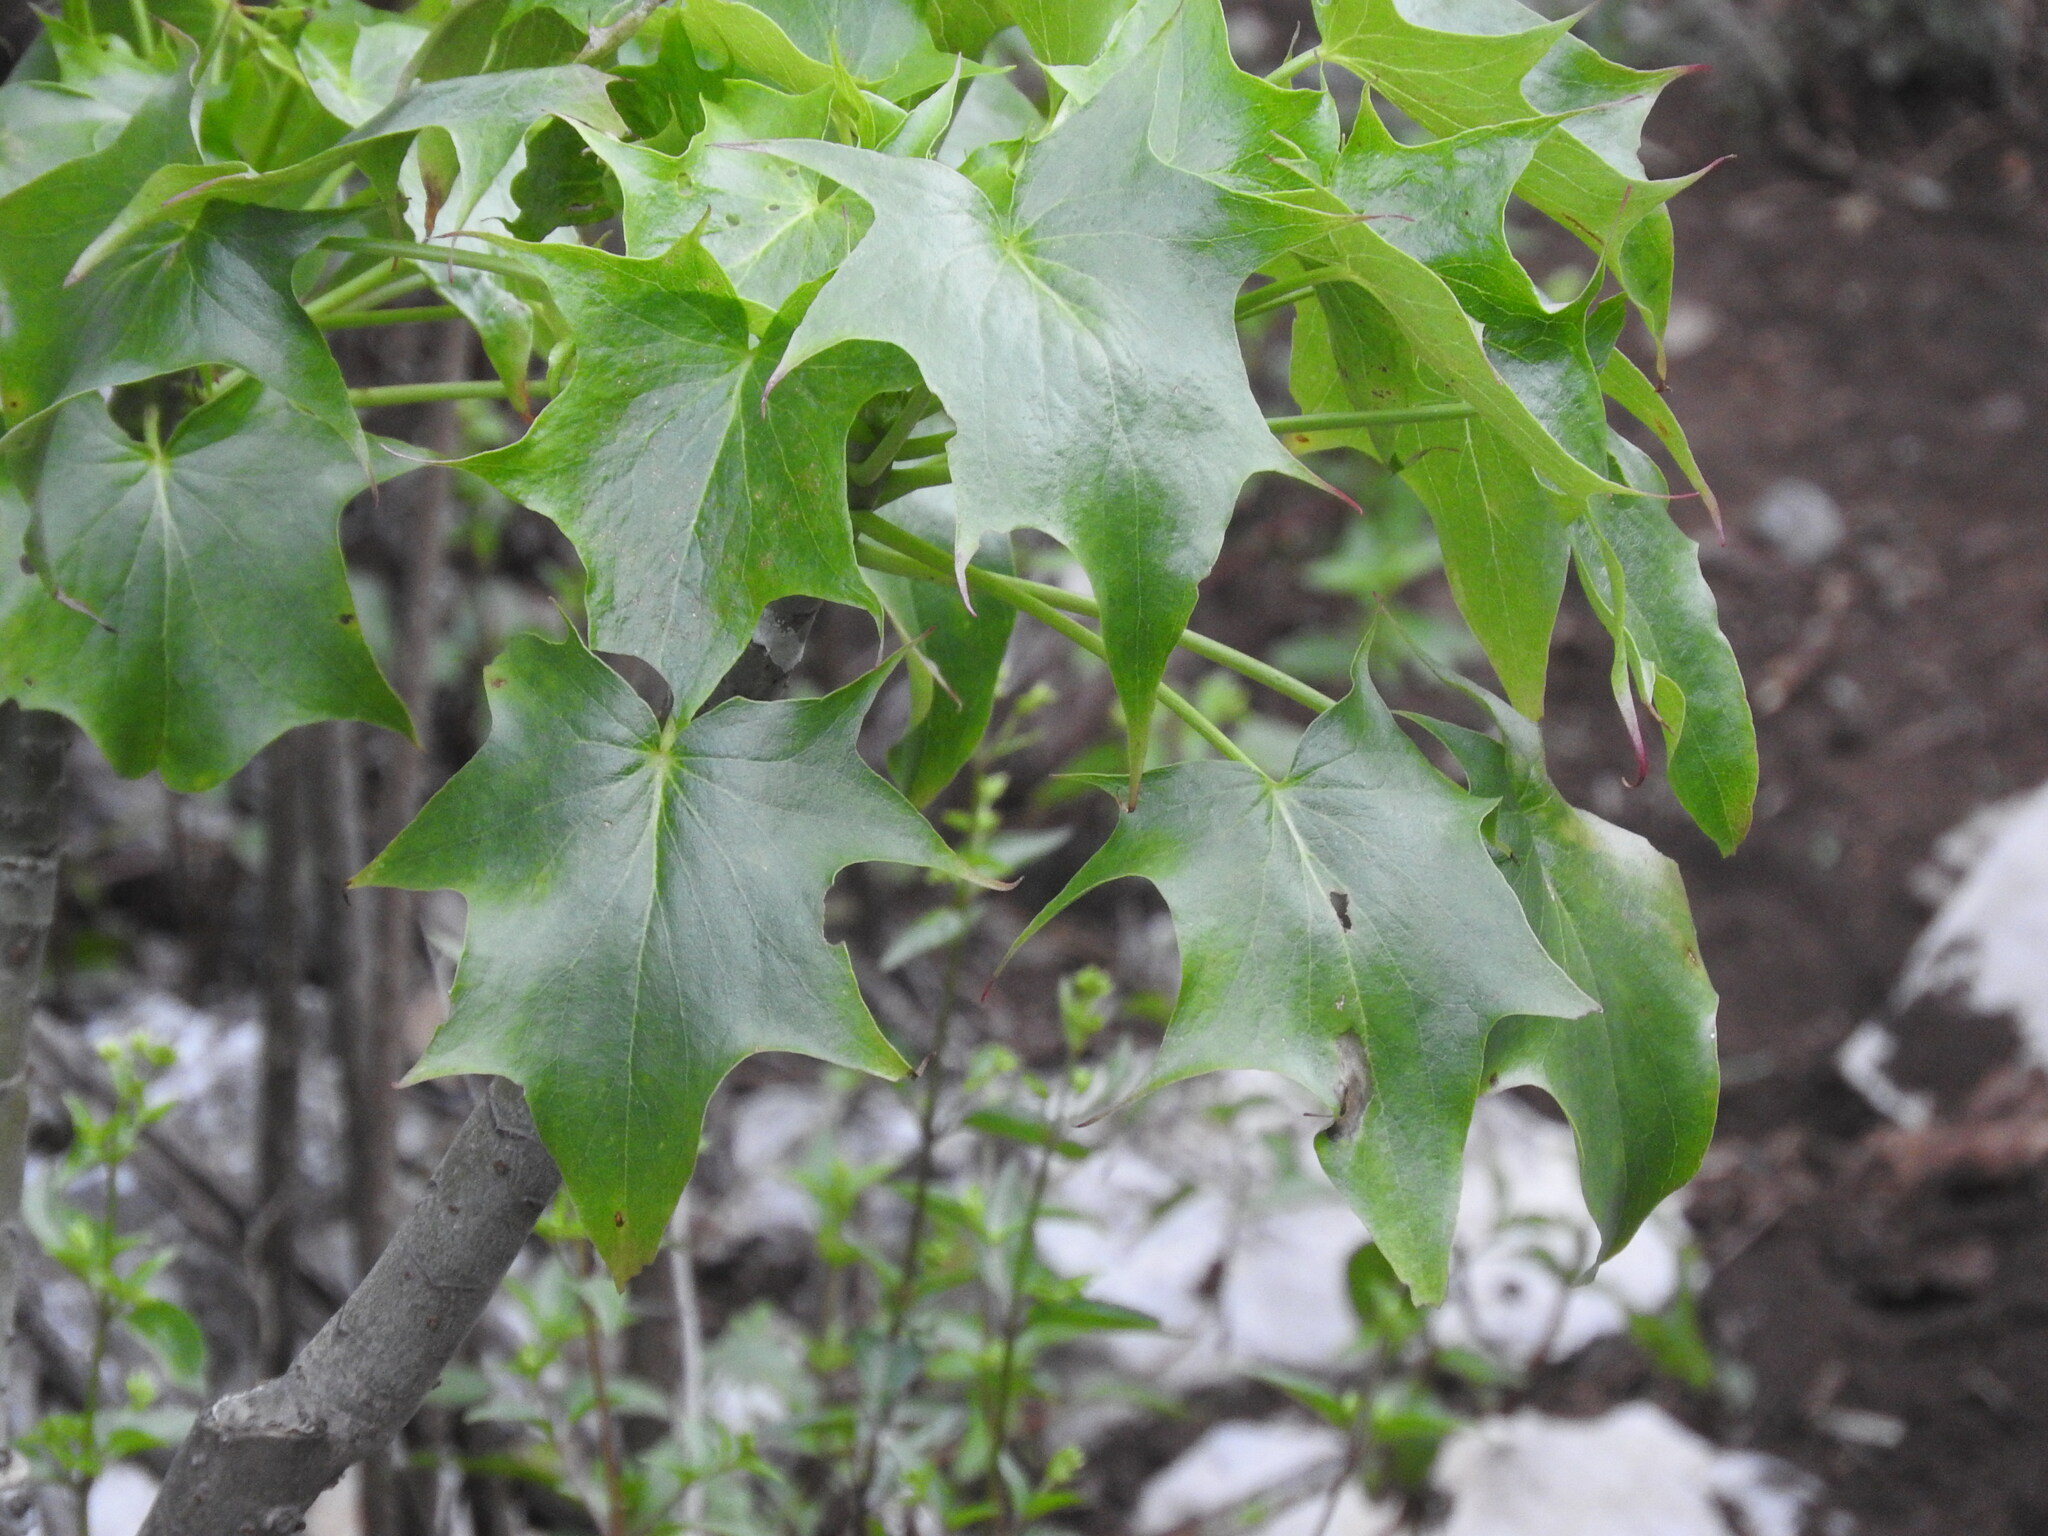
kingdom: Plantae
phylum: Tracheophyta
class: Magnoliopsida
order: Asterales
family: Asteraceae
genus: Pittocaulon
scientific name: Pittocaulon praecox
